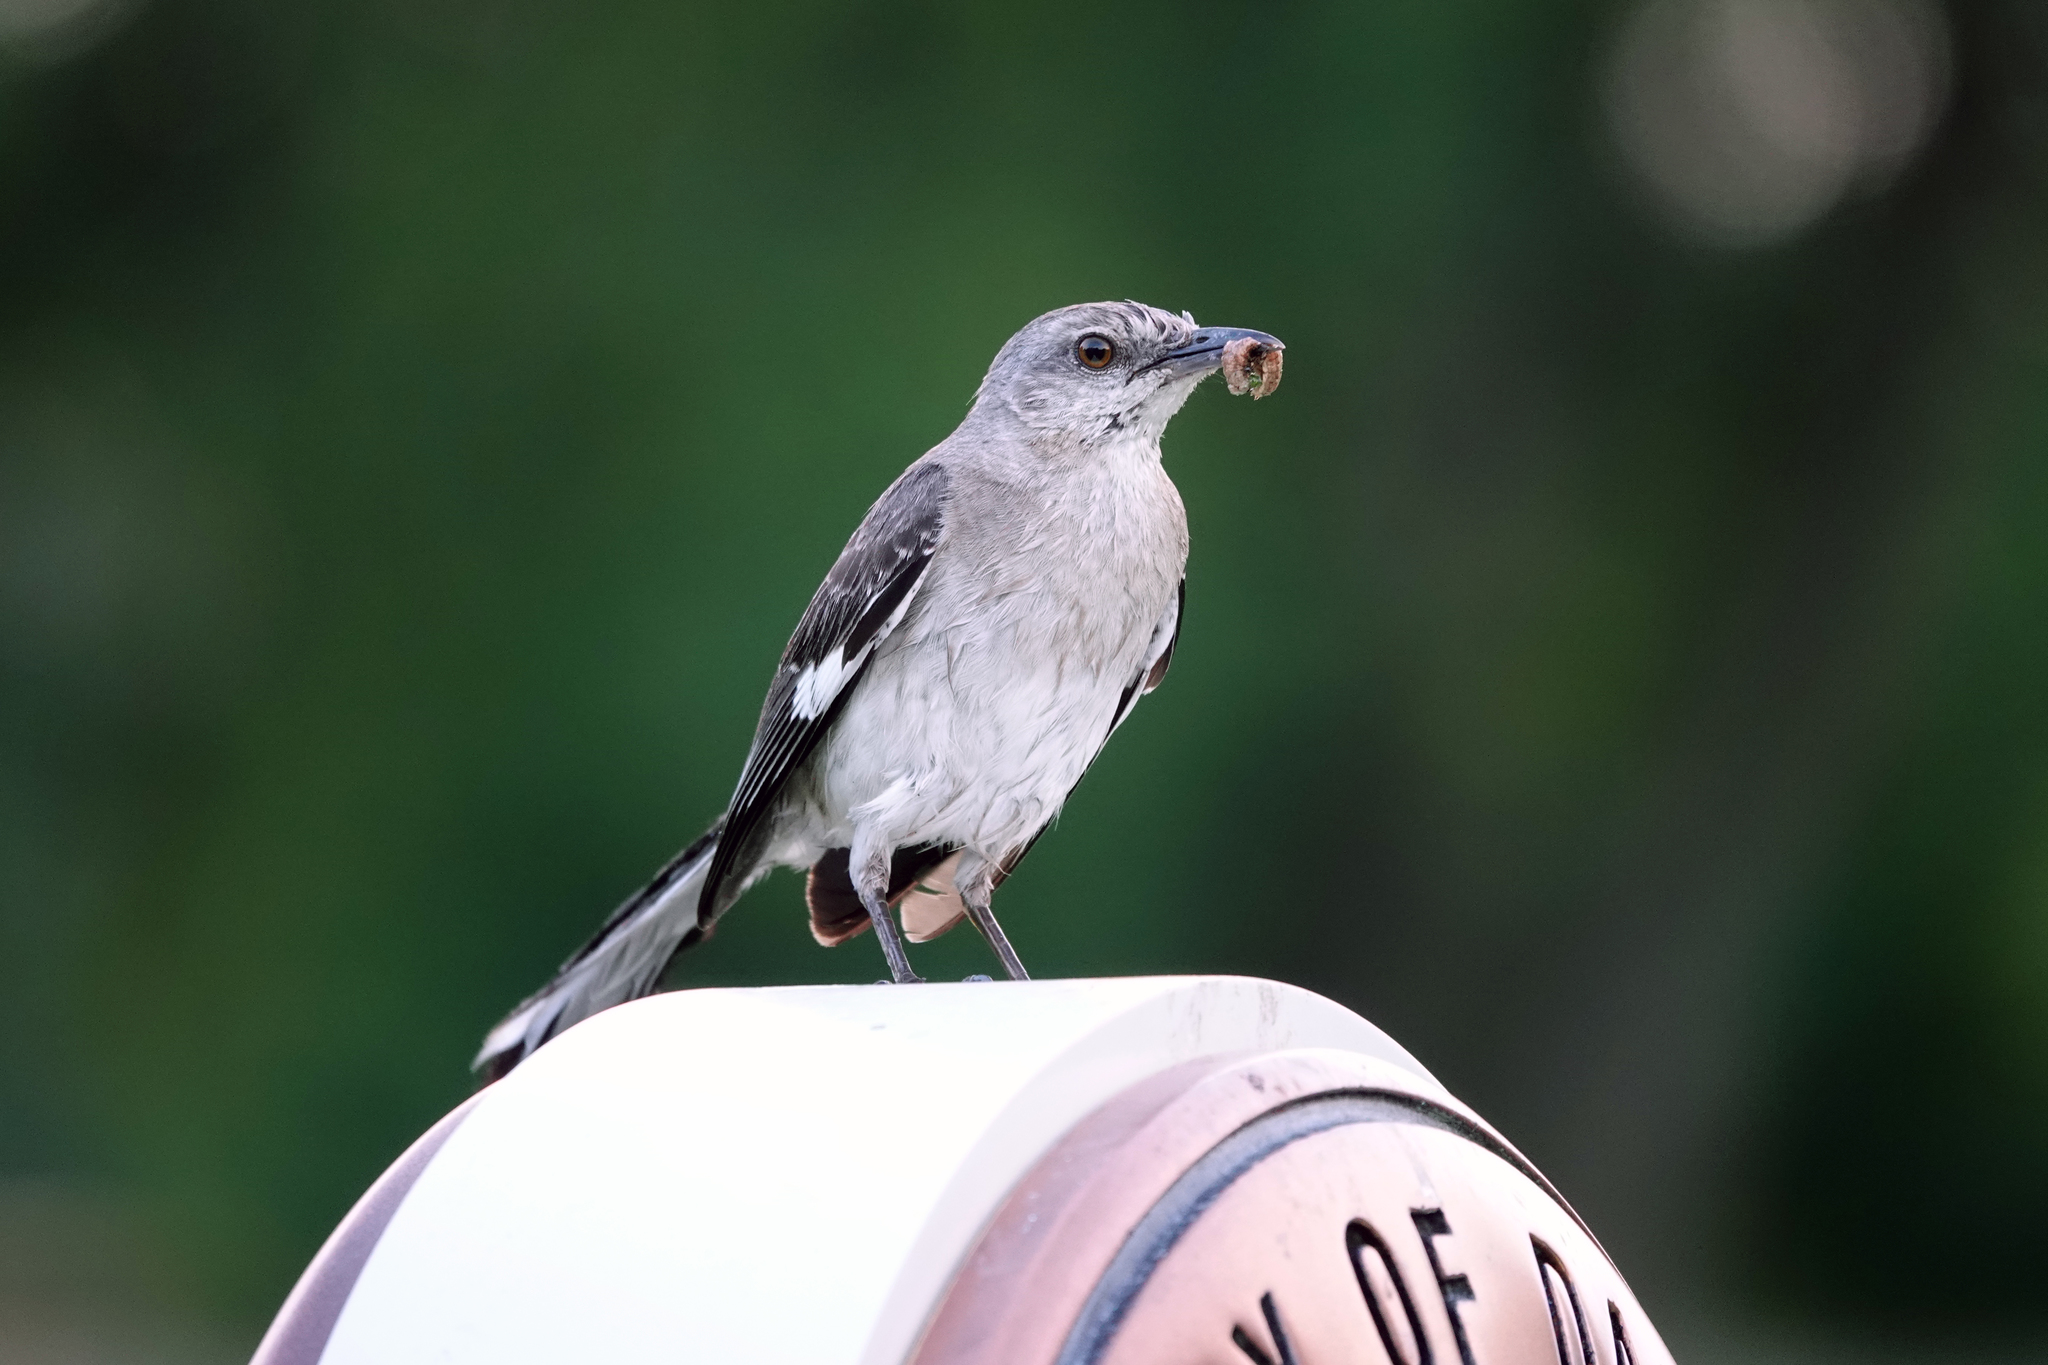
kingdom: Animalia
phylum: Chordata
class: Aves
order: Passeriformes
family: Mimidae
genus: Mimus
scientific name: Mimus polyglottos
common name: Northern mockingbird
